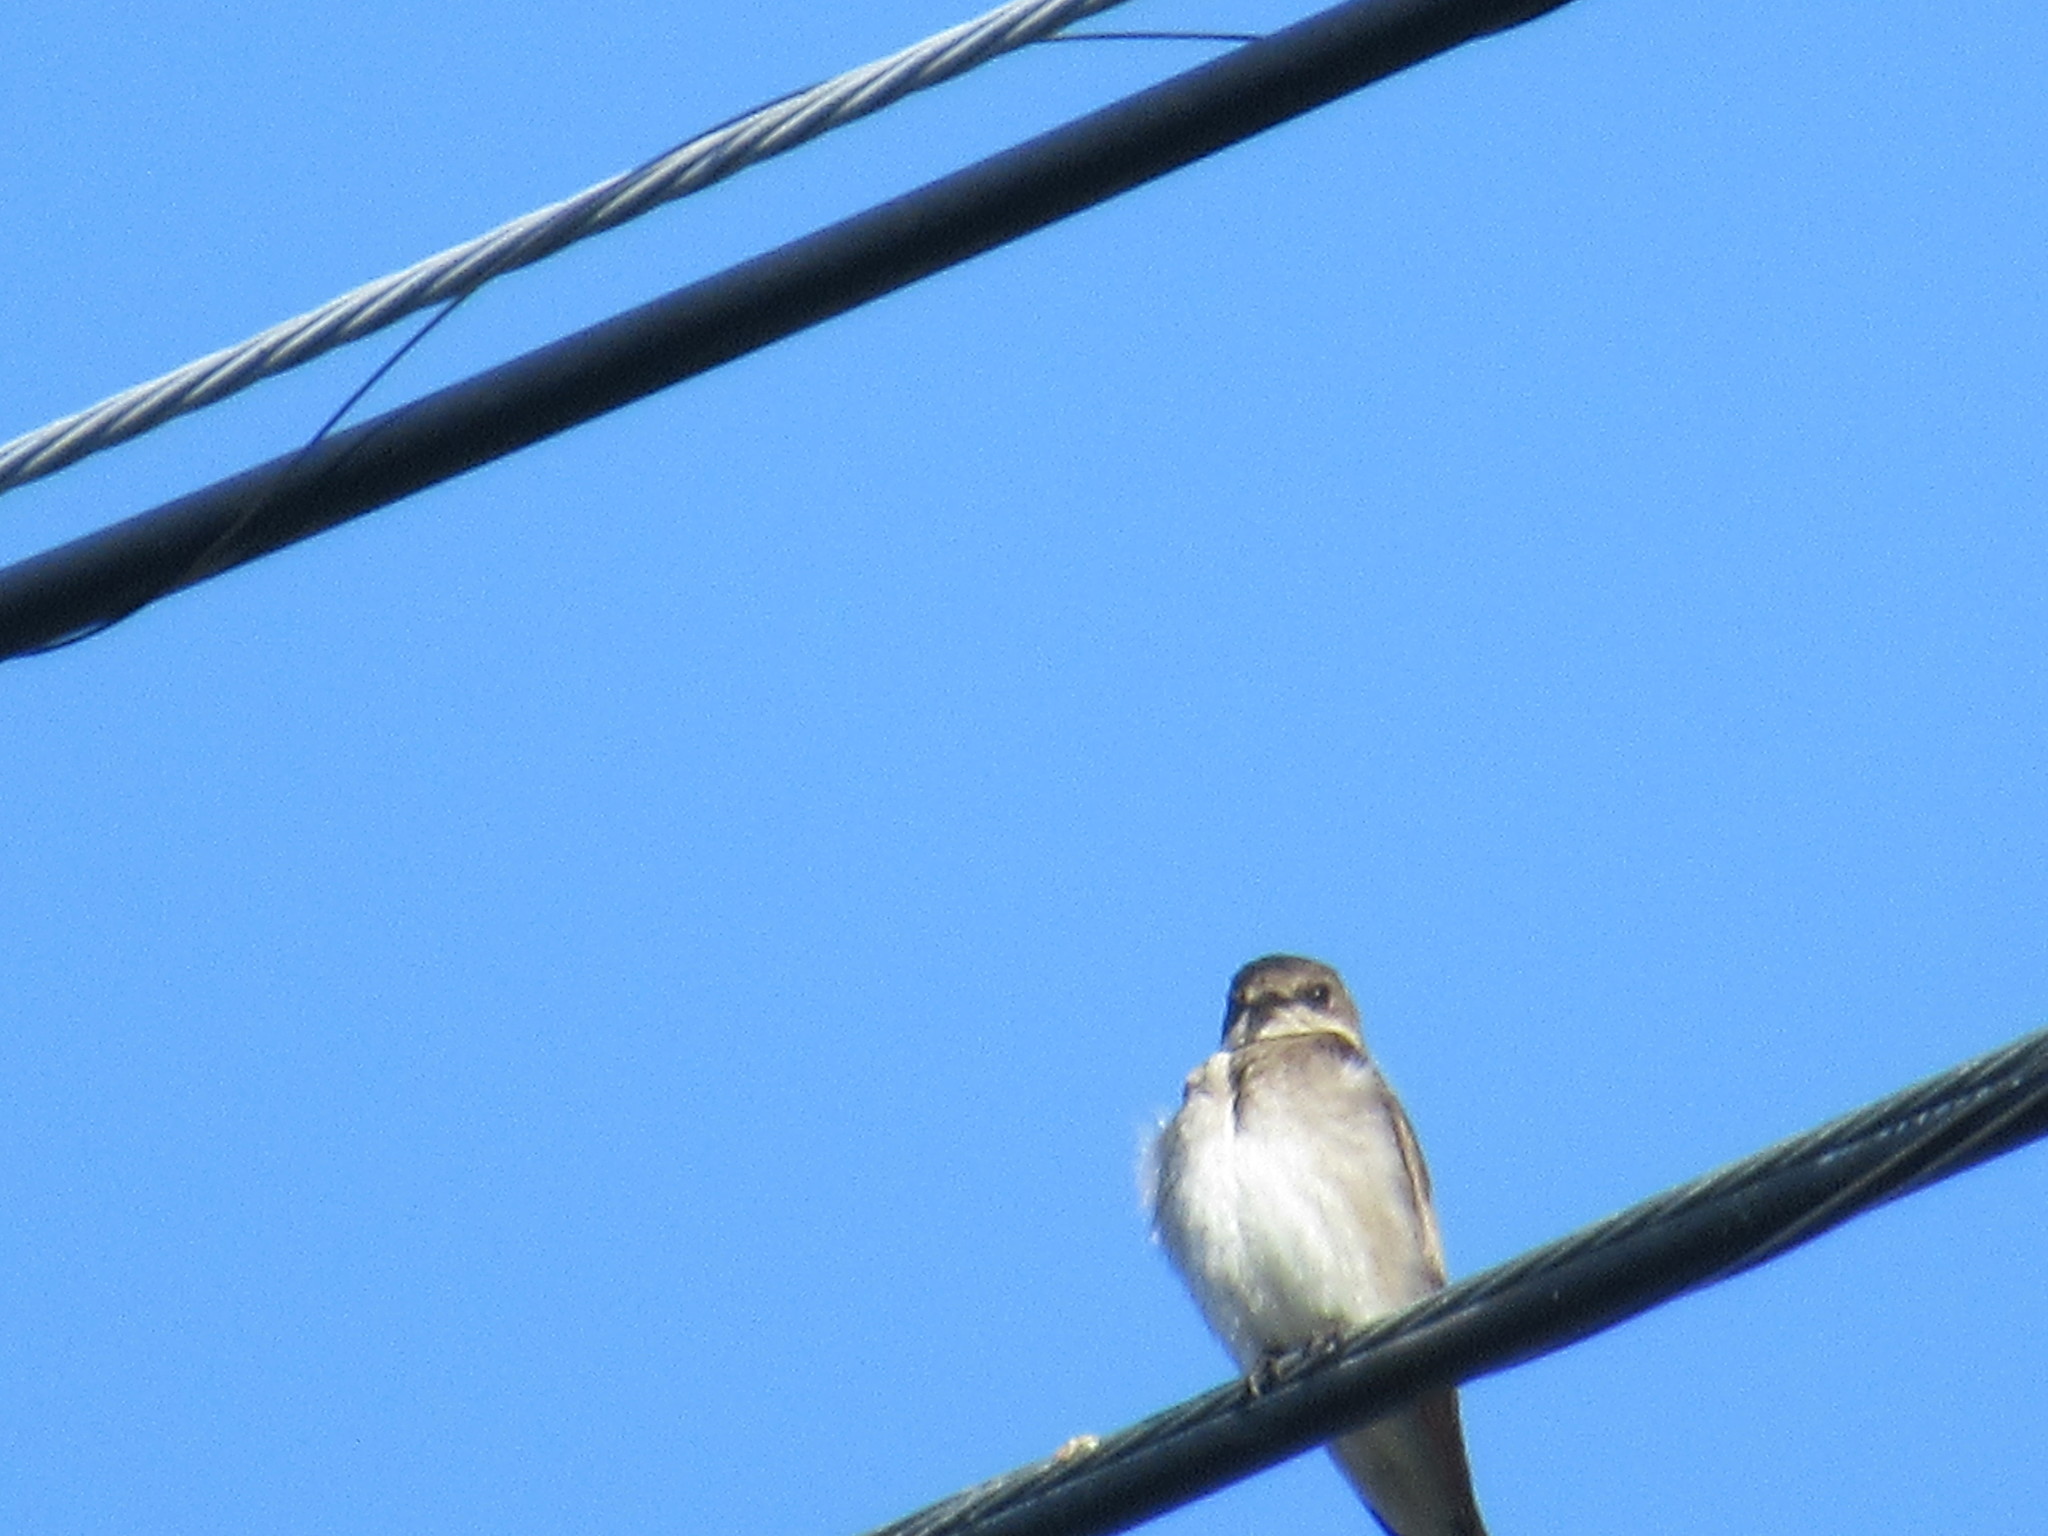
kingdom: Animalia
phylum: Chordata
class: Aves
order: Passeriformes
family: Hirundinidae
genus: Stelgidopteryx
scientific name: Stelgidopteryx serripennis
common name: Northern rough-winged swallow
